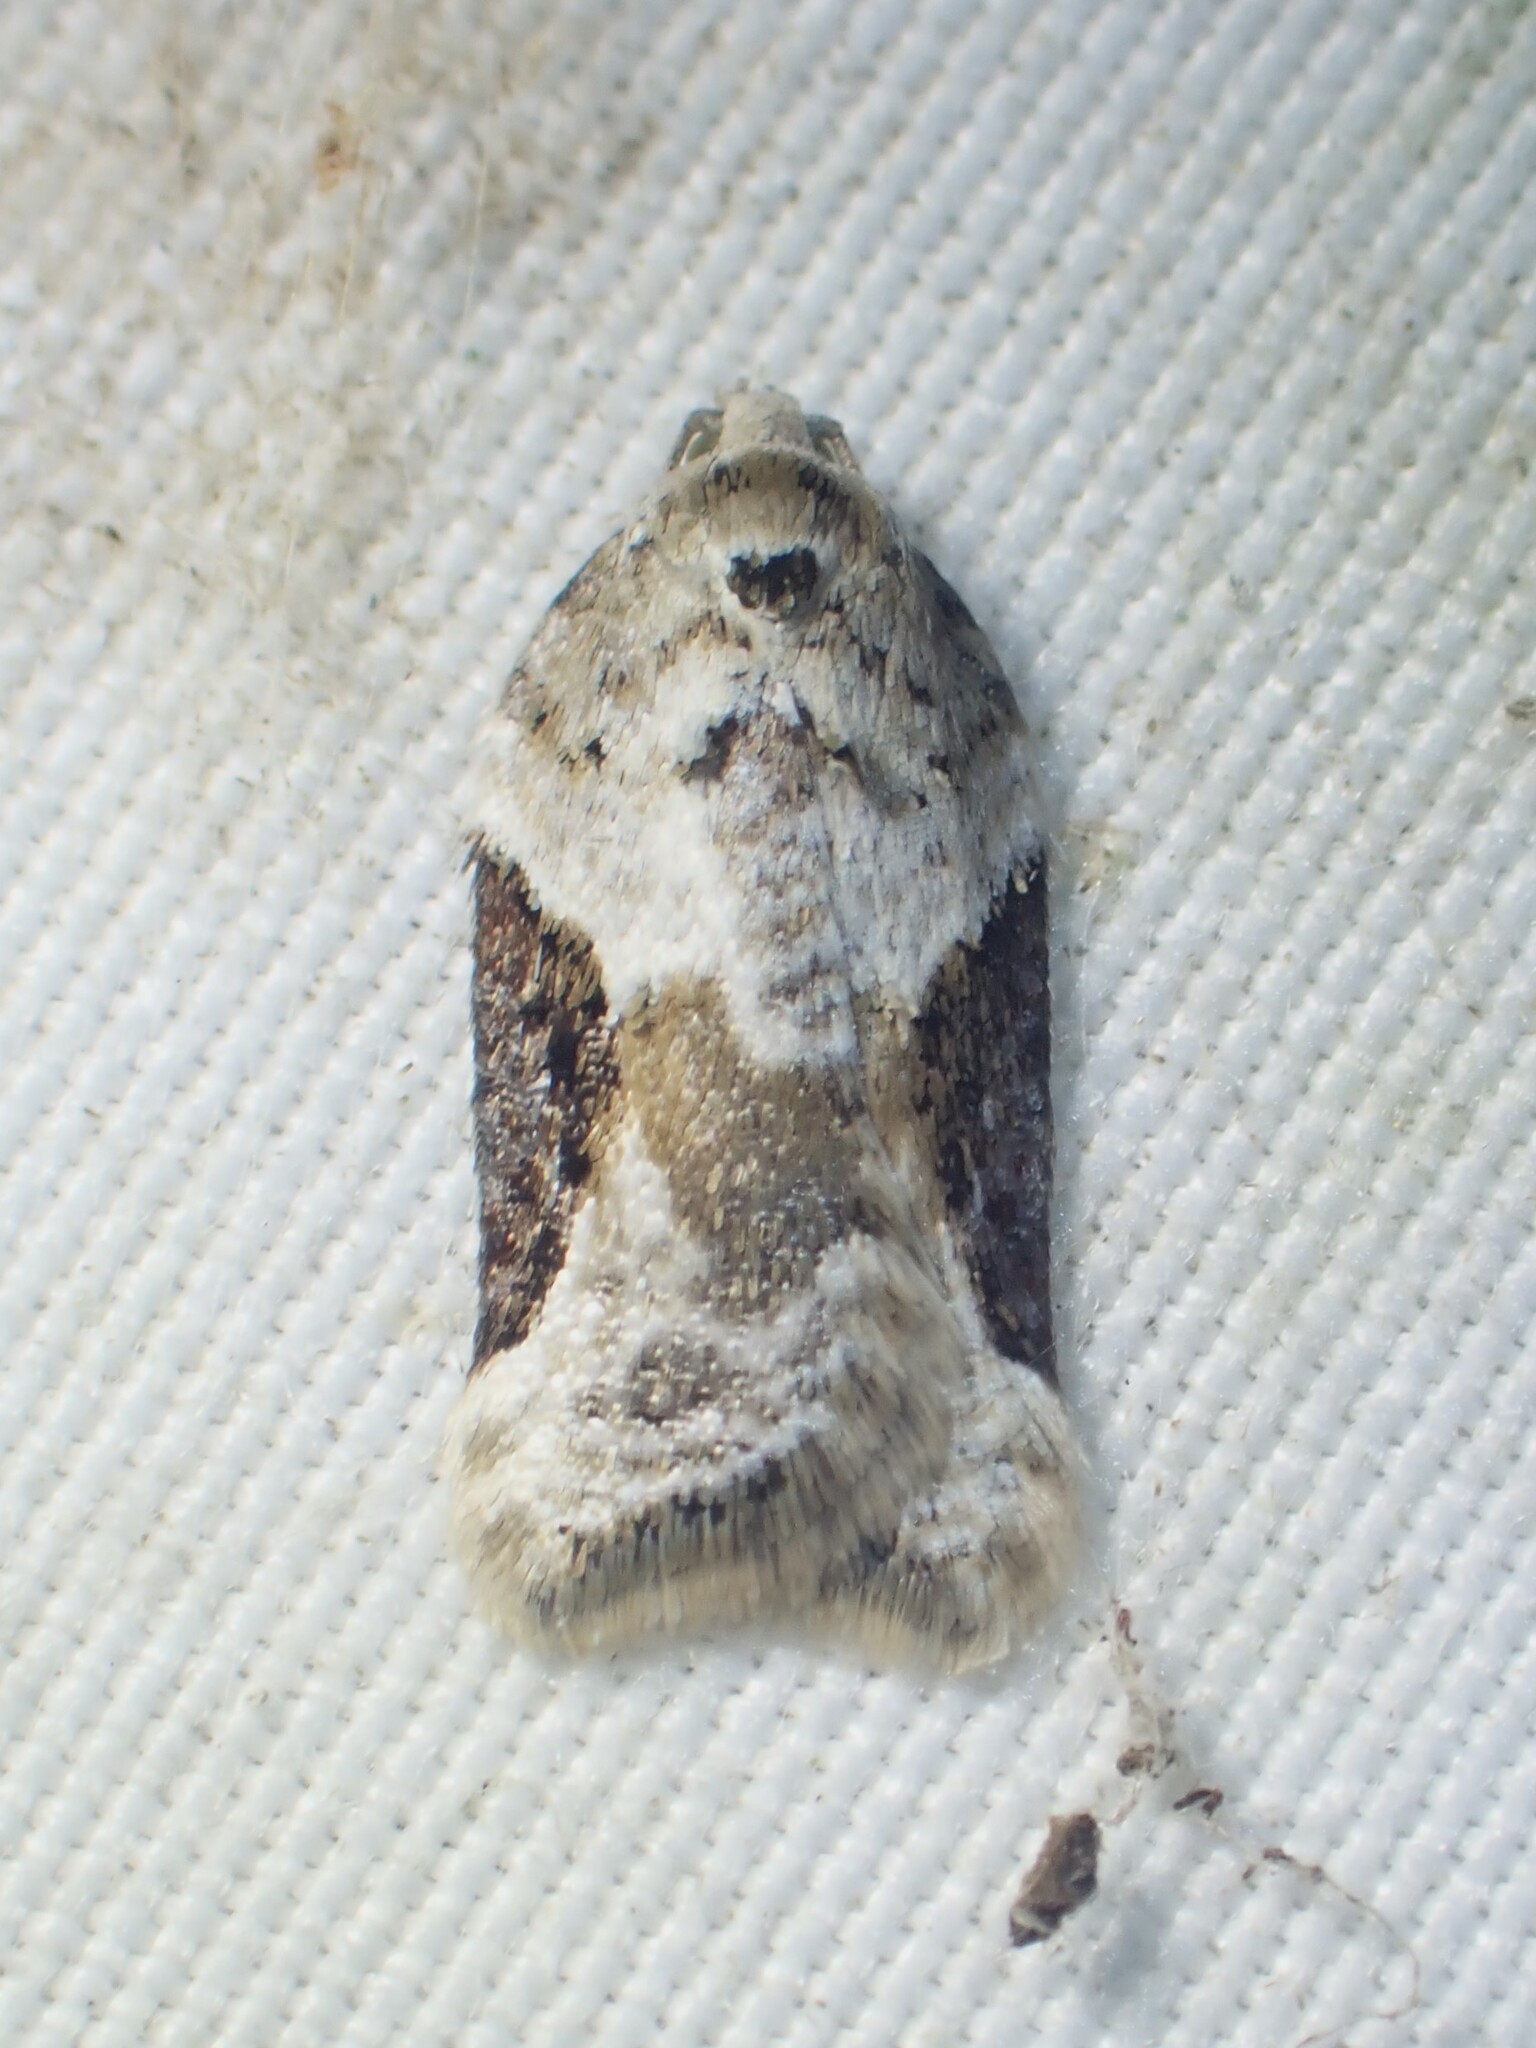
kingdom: Animalia
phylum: Arthropoda
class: Insecta
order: Lepidoptera
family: Tortricidae
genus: Acleris
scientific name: Acleris forbesana
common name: Forbes' acleris moth
